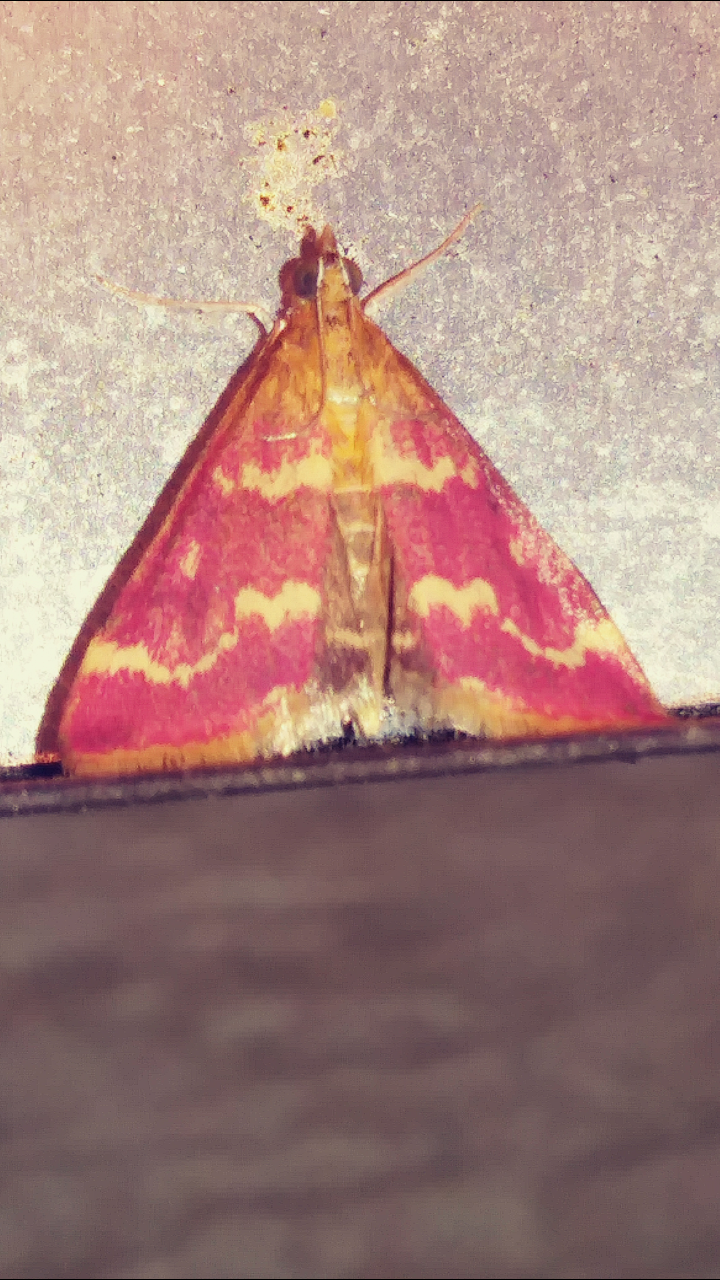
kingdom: Animalia
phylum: Arthropoda
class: Insecta
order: Lepidoptera
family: Crambidae
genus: Pyrausta
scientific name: Pyrausta signatalis
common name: Raspberry pyrausta moth
